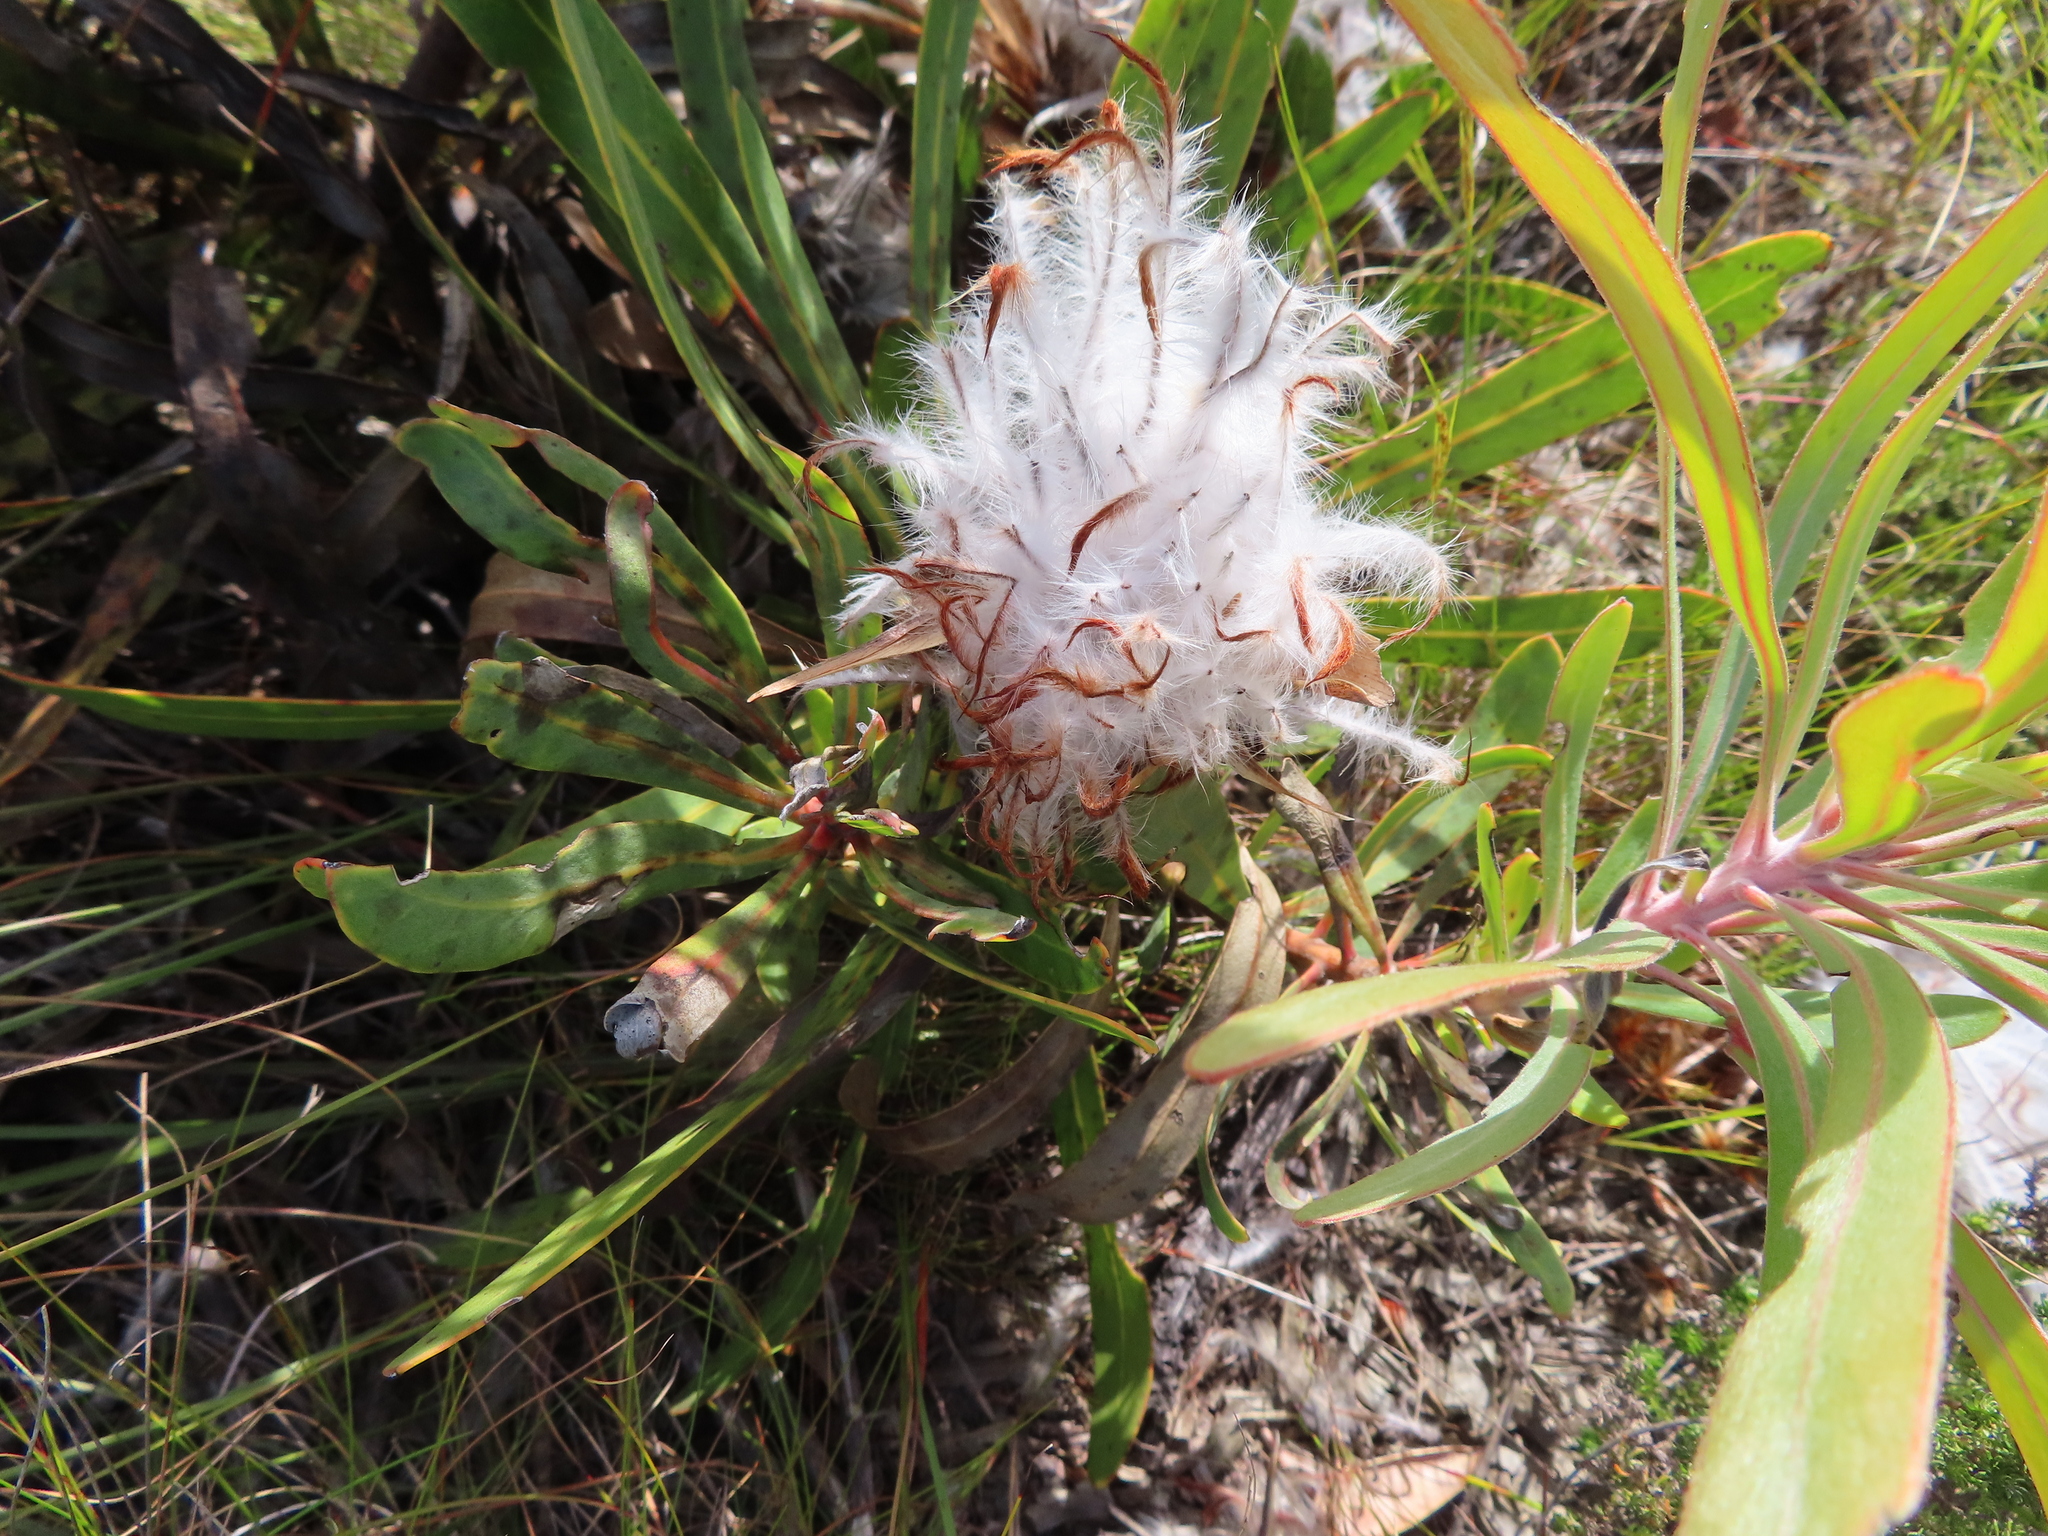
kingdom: Plantae
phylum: Tracheophyta
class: Magnoliopsida
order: Proteales
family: Proteaceae
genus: Protea
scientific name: Protea longifolia
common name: Long-leaf sugarbush
